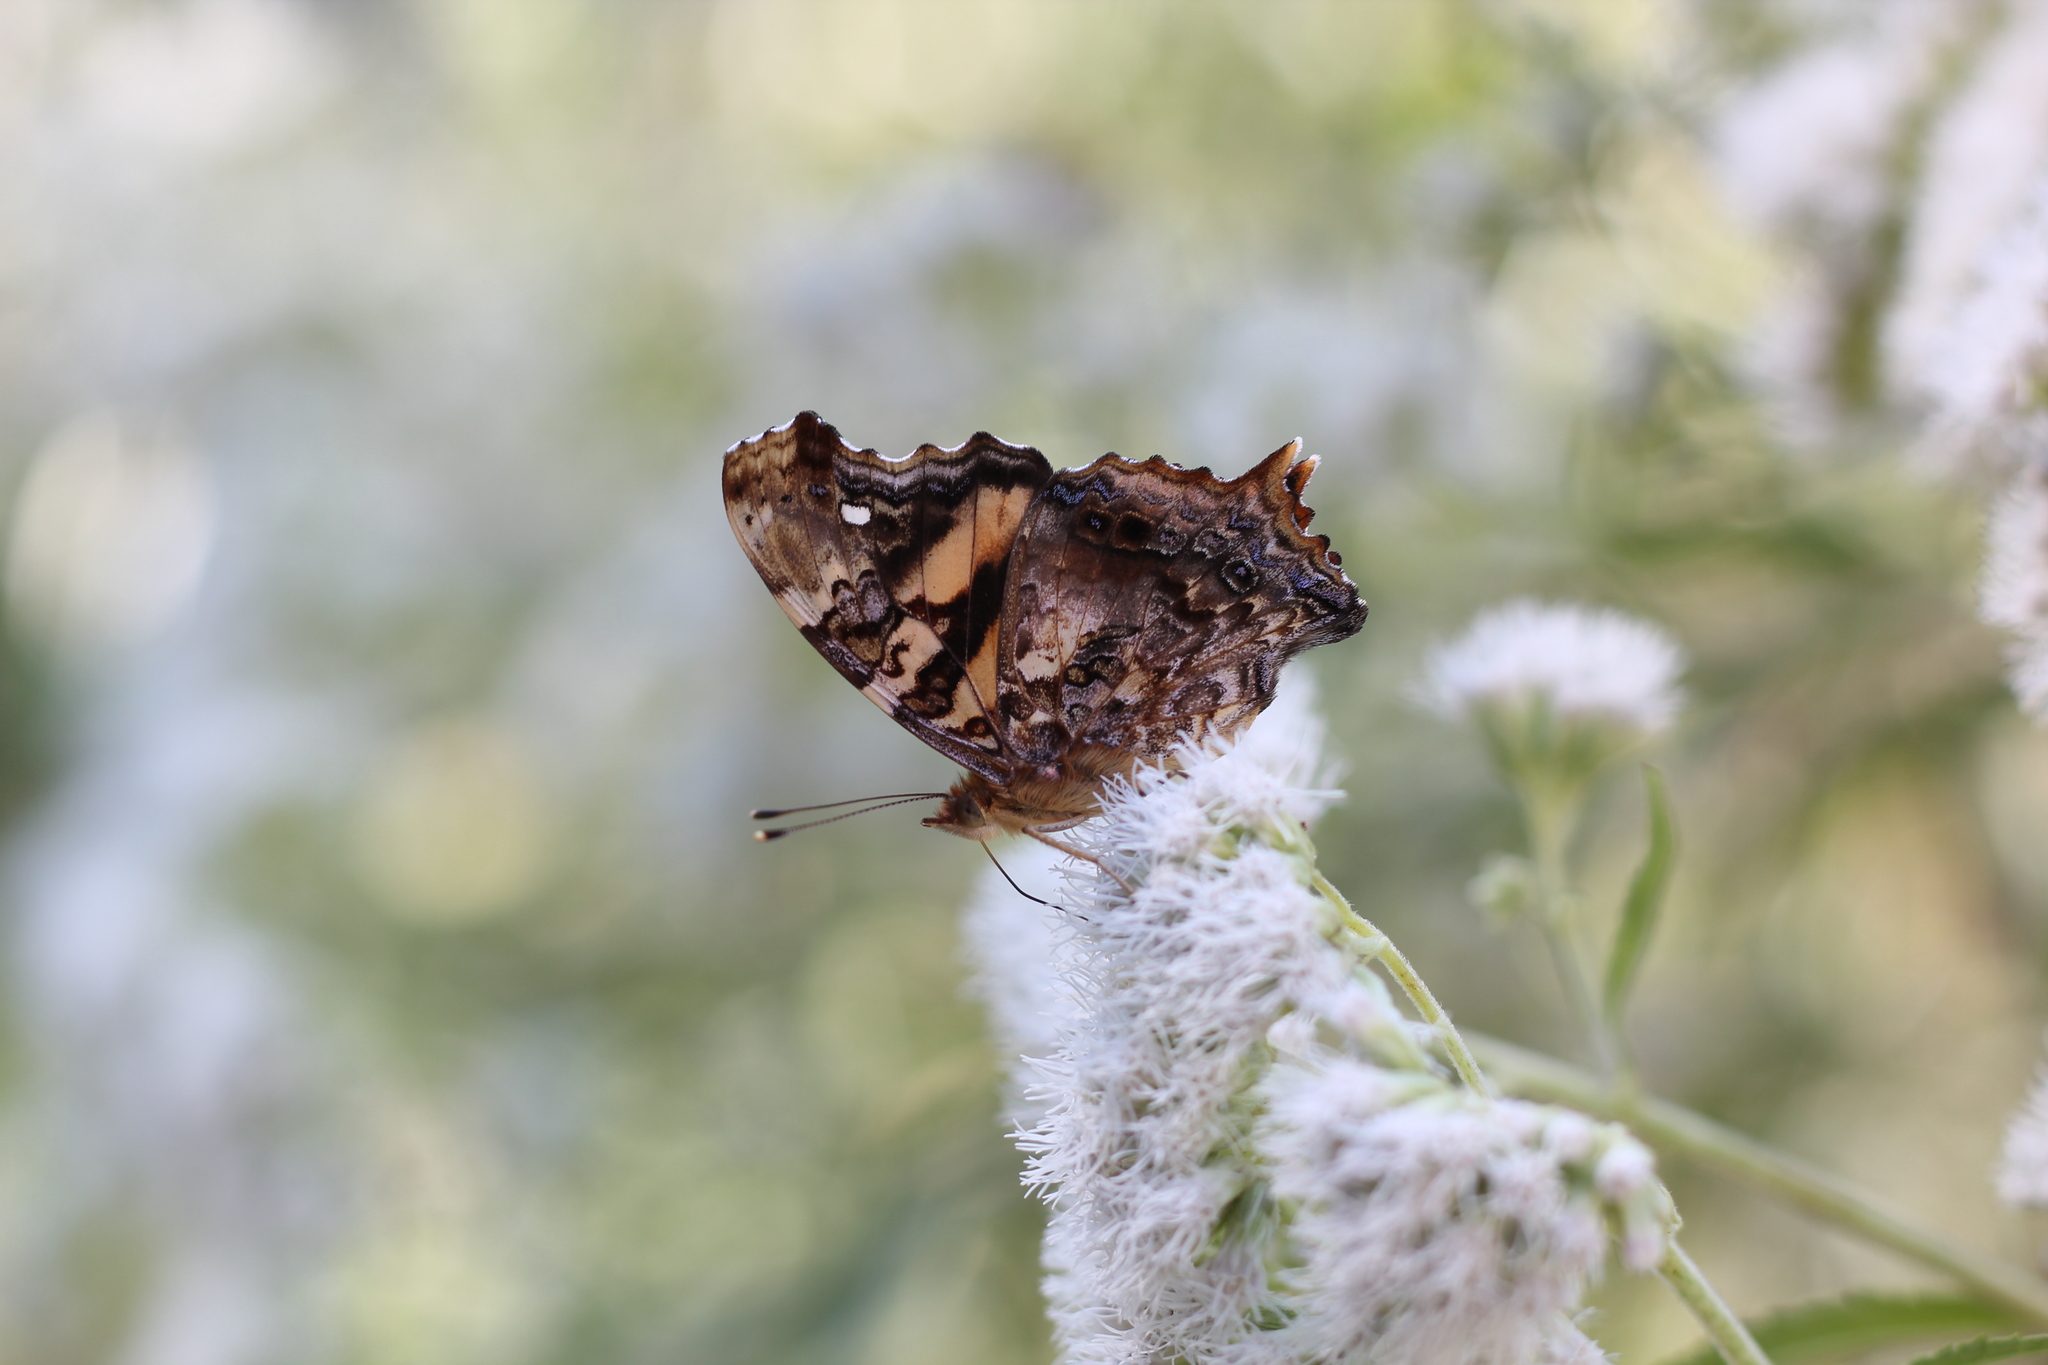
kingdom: Animalia
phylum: Arthropoda
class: Insecta
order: Lepidoptera
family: Nymphalidae
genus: Hypanartia
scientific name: Hypanartia bella
